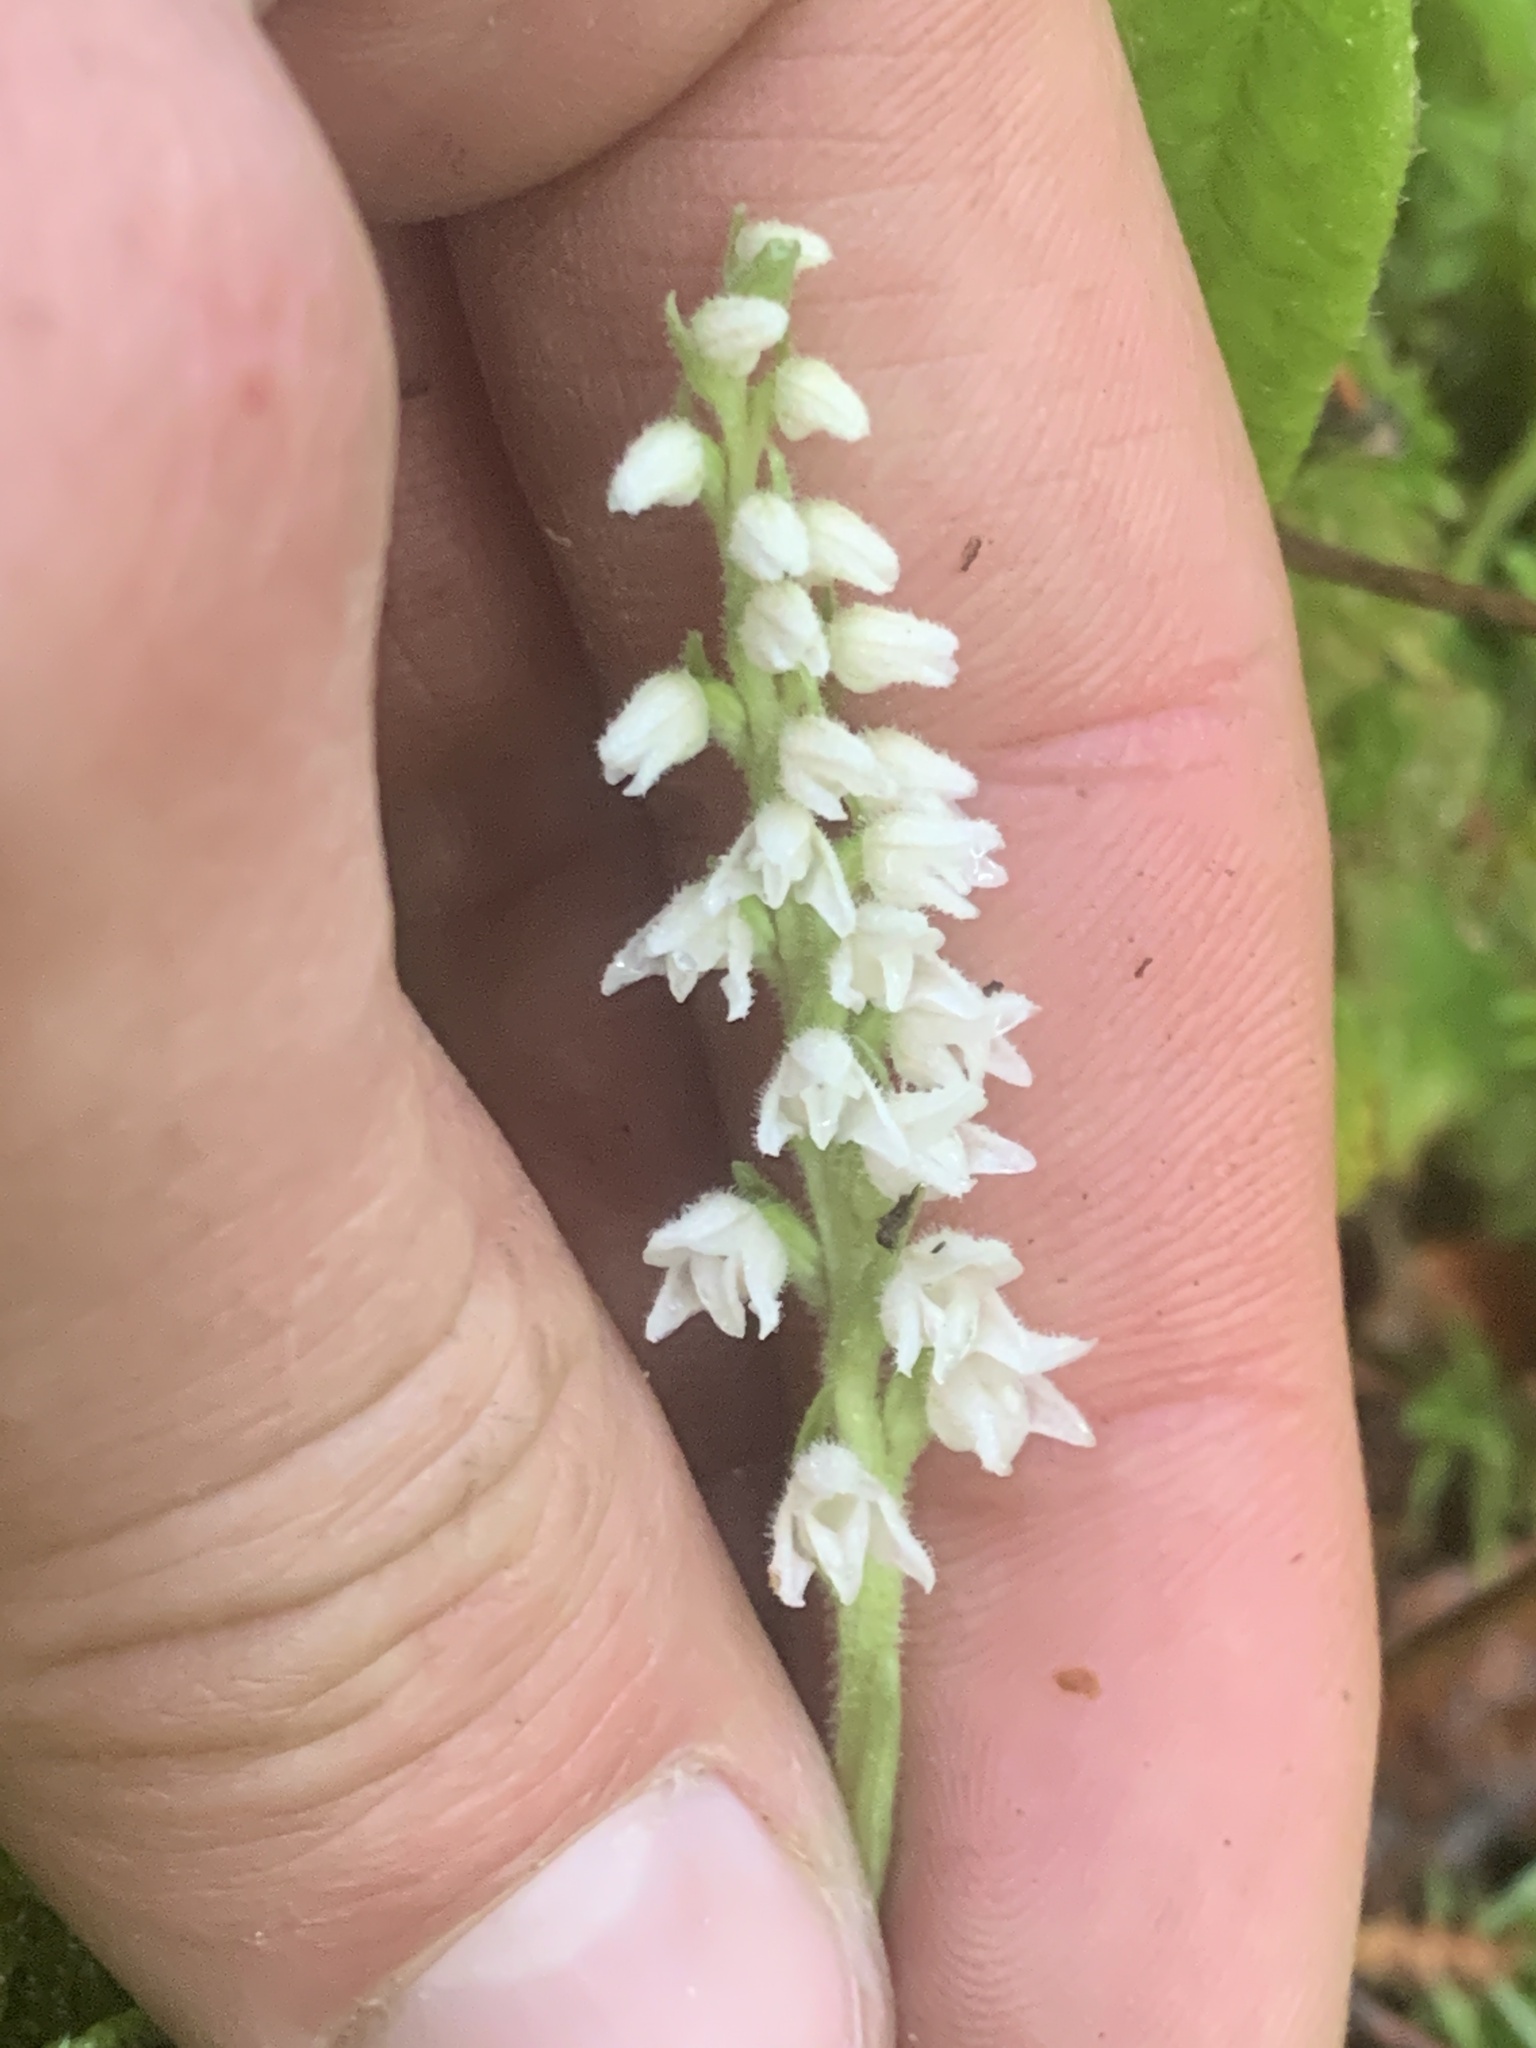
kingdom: Plantae
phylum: Tracheophyta
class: Liliopsida
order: Asparagales
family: Orchidaceae
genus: Goodyera
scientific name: Goodyera repens
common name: Creeping lady's-tresses
